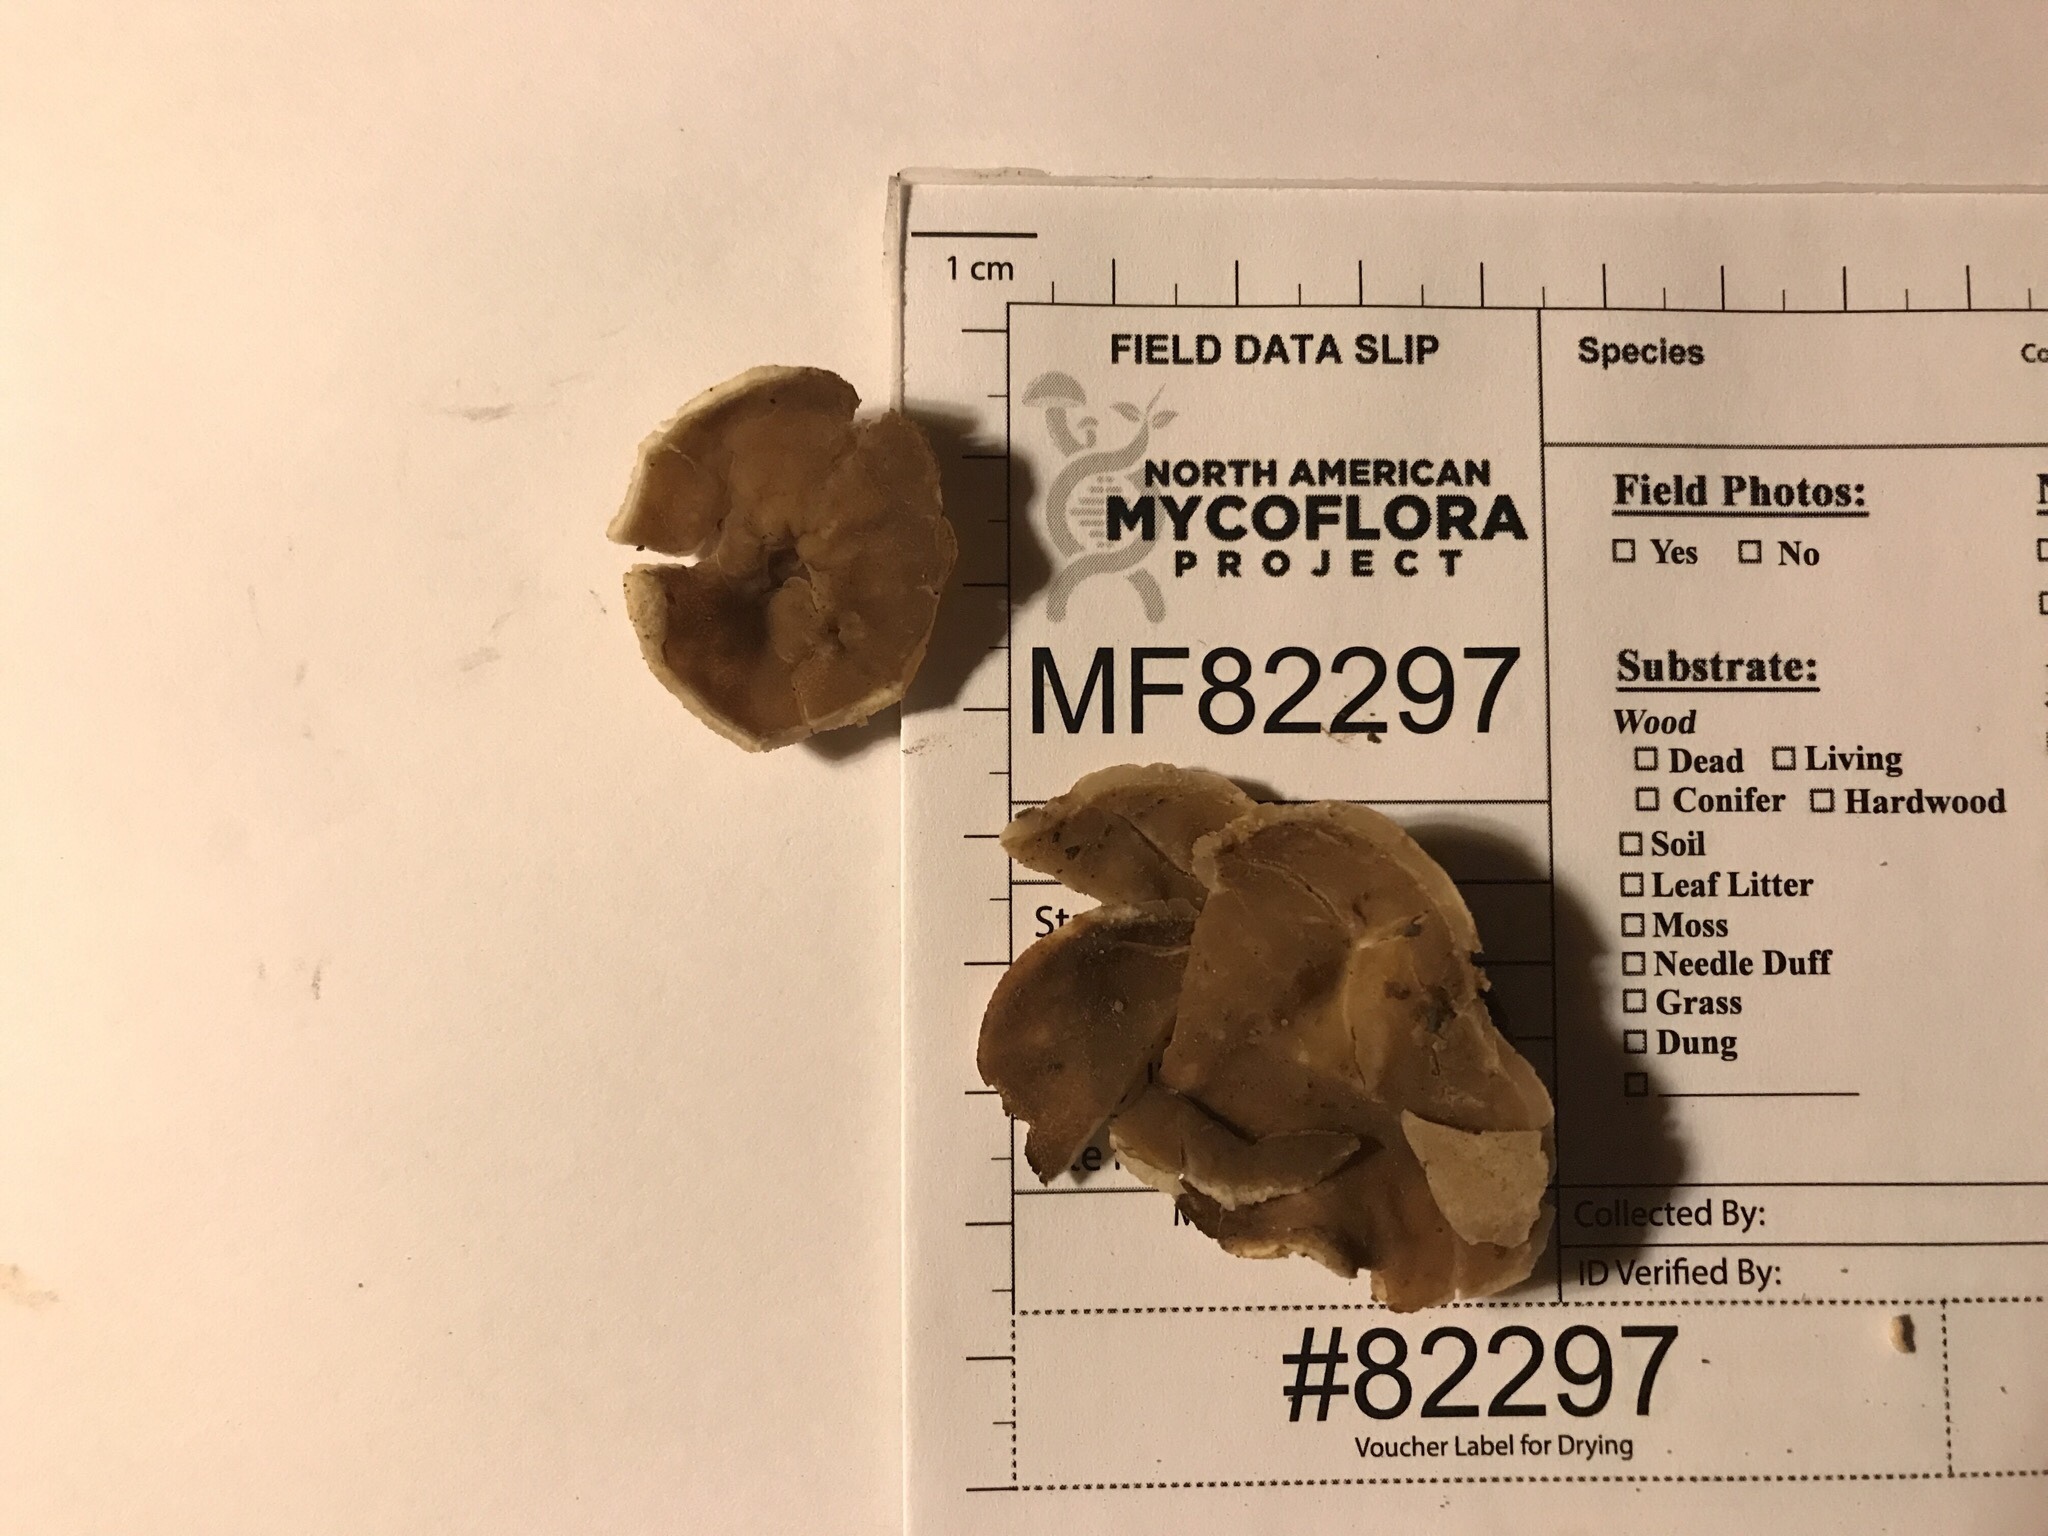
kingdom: Fungi
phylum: Ascomycota
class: Pezizomycetes
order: Pezizales
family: Morchellaceae
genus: Disciotis
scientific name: Disciotis venosa
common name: Bleach cup
